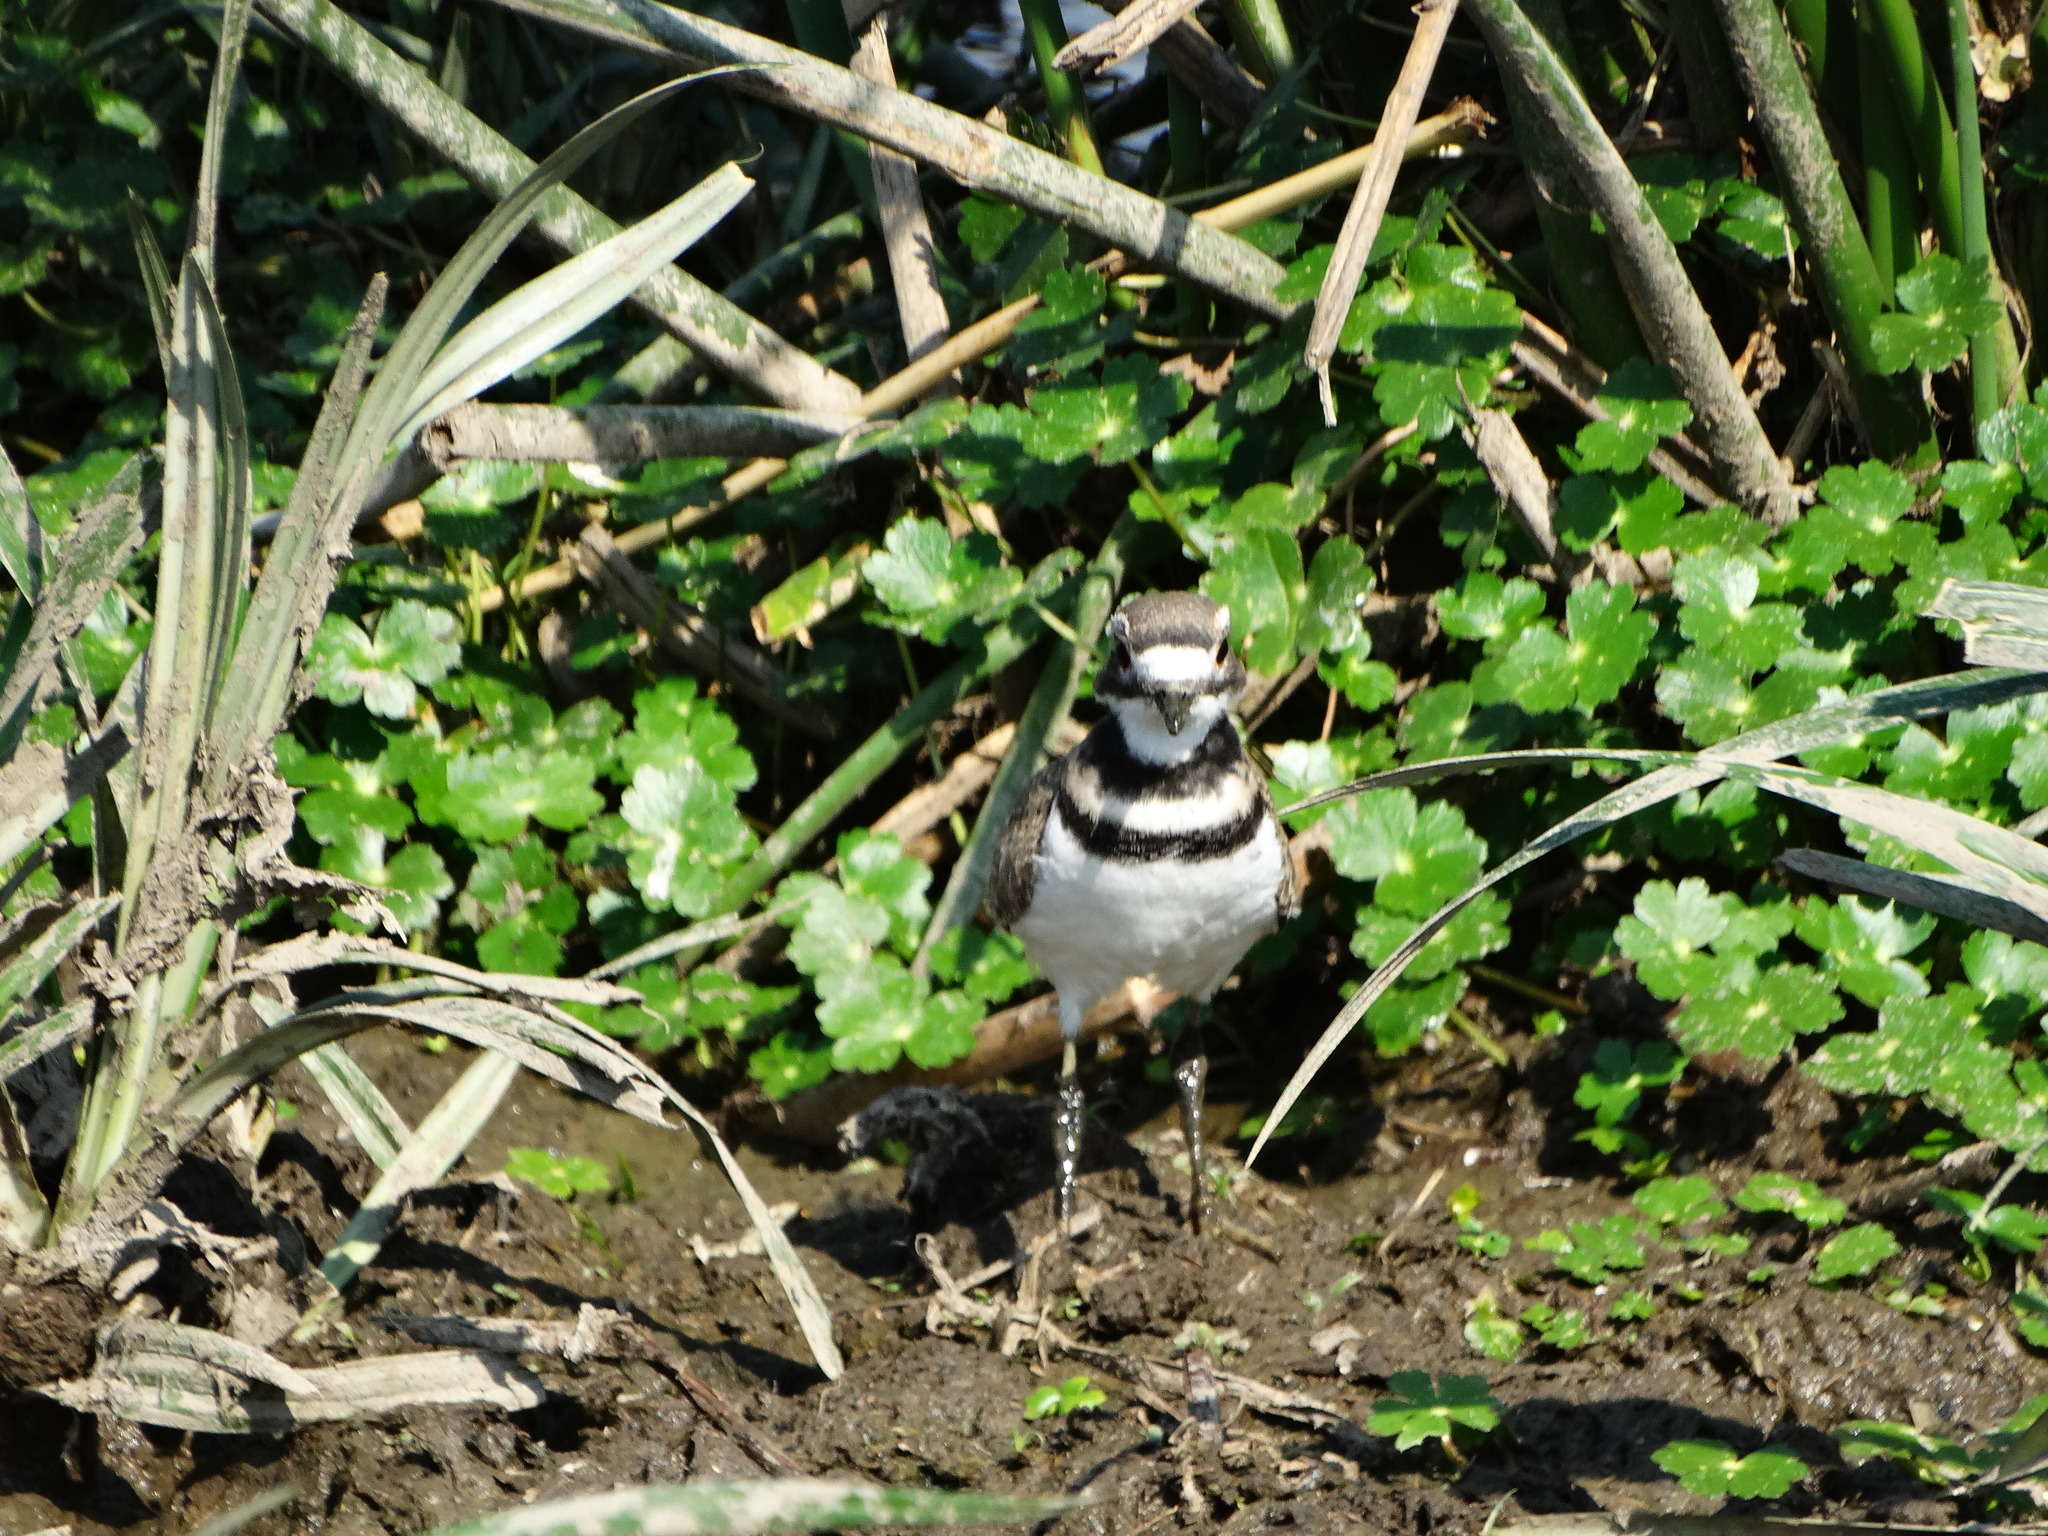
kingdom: Animalia
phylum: Chordata
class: Aves
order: Charadriiformes
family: Charadriidae
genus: Charadrius
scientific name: Charadrius vociferus
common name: Killdeer
